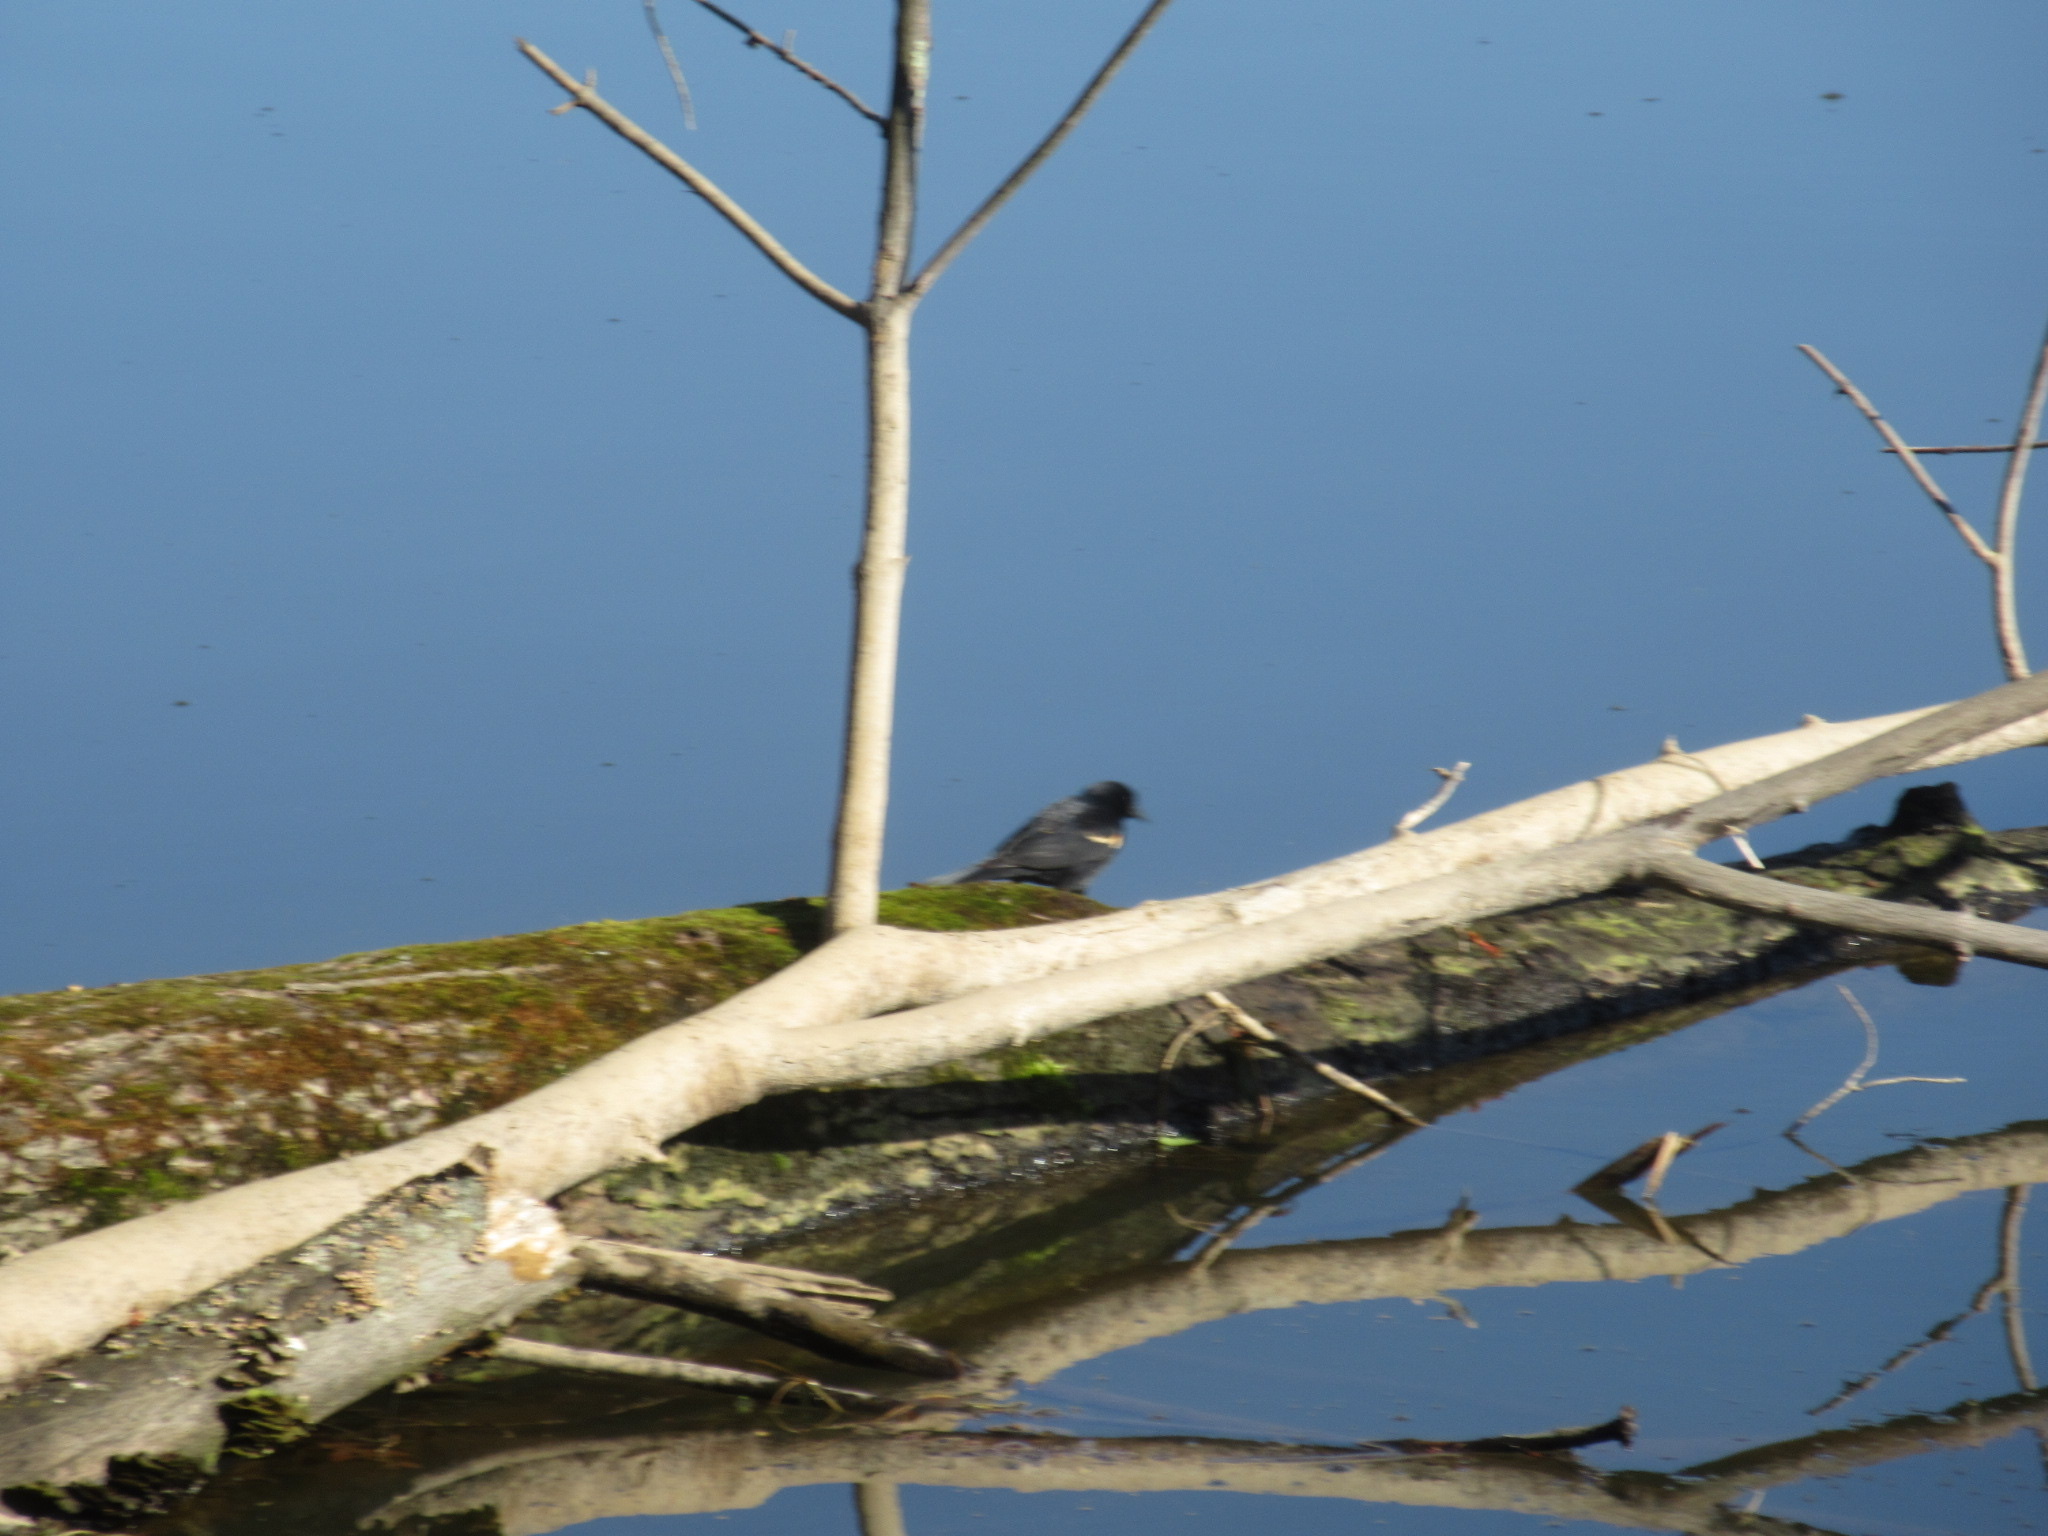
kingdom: Animalia
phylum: Chordata
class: Aves
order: Passeriformes
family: Icteridae
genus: Agelaius
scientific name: Agelaius phoeniceus
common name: Red-winged blackbird
